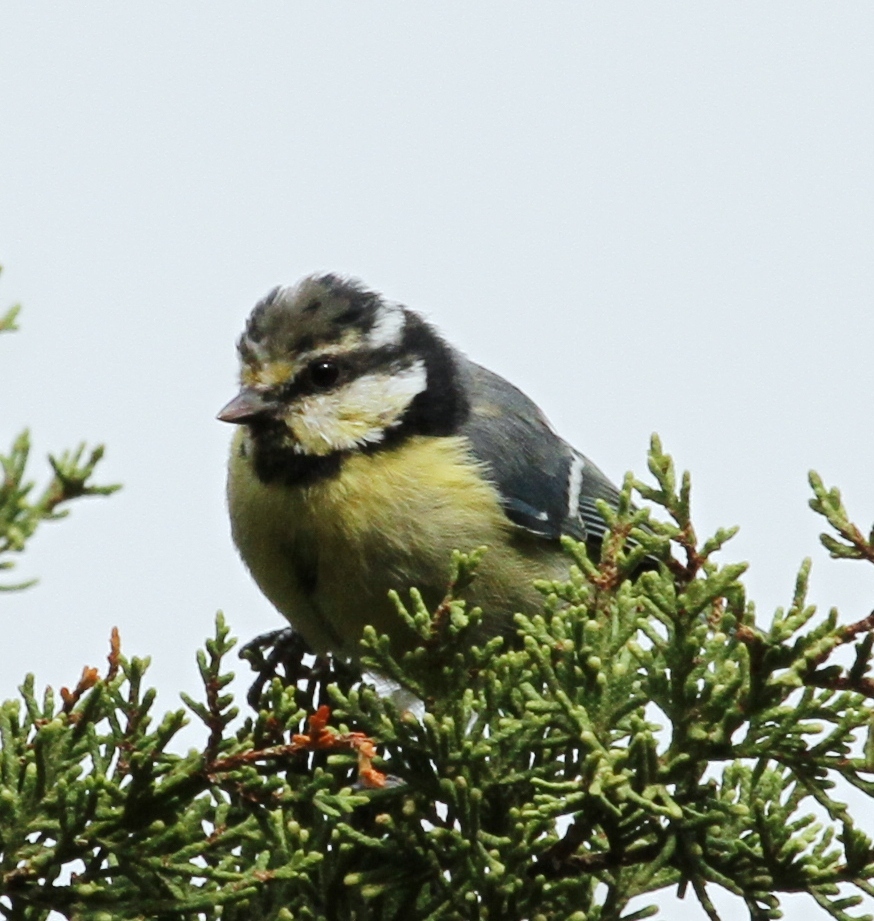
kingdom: Animalia
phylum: Chordata
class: Aves
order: Passeriformes
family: Paridae
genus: Cyanistes
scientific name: Cyanistes teneriffae
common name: African blue tit
